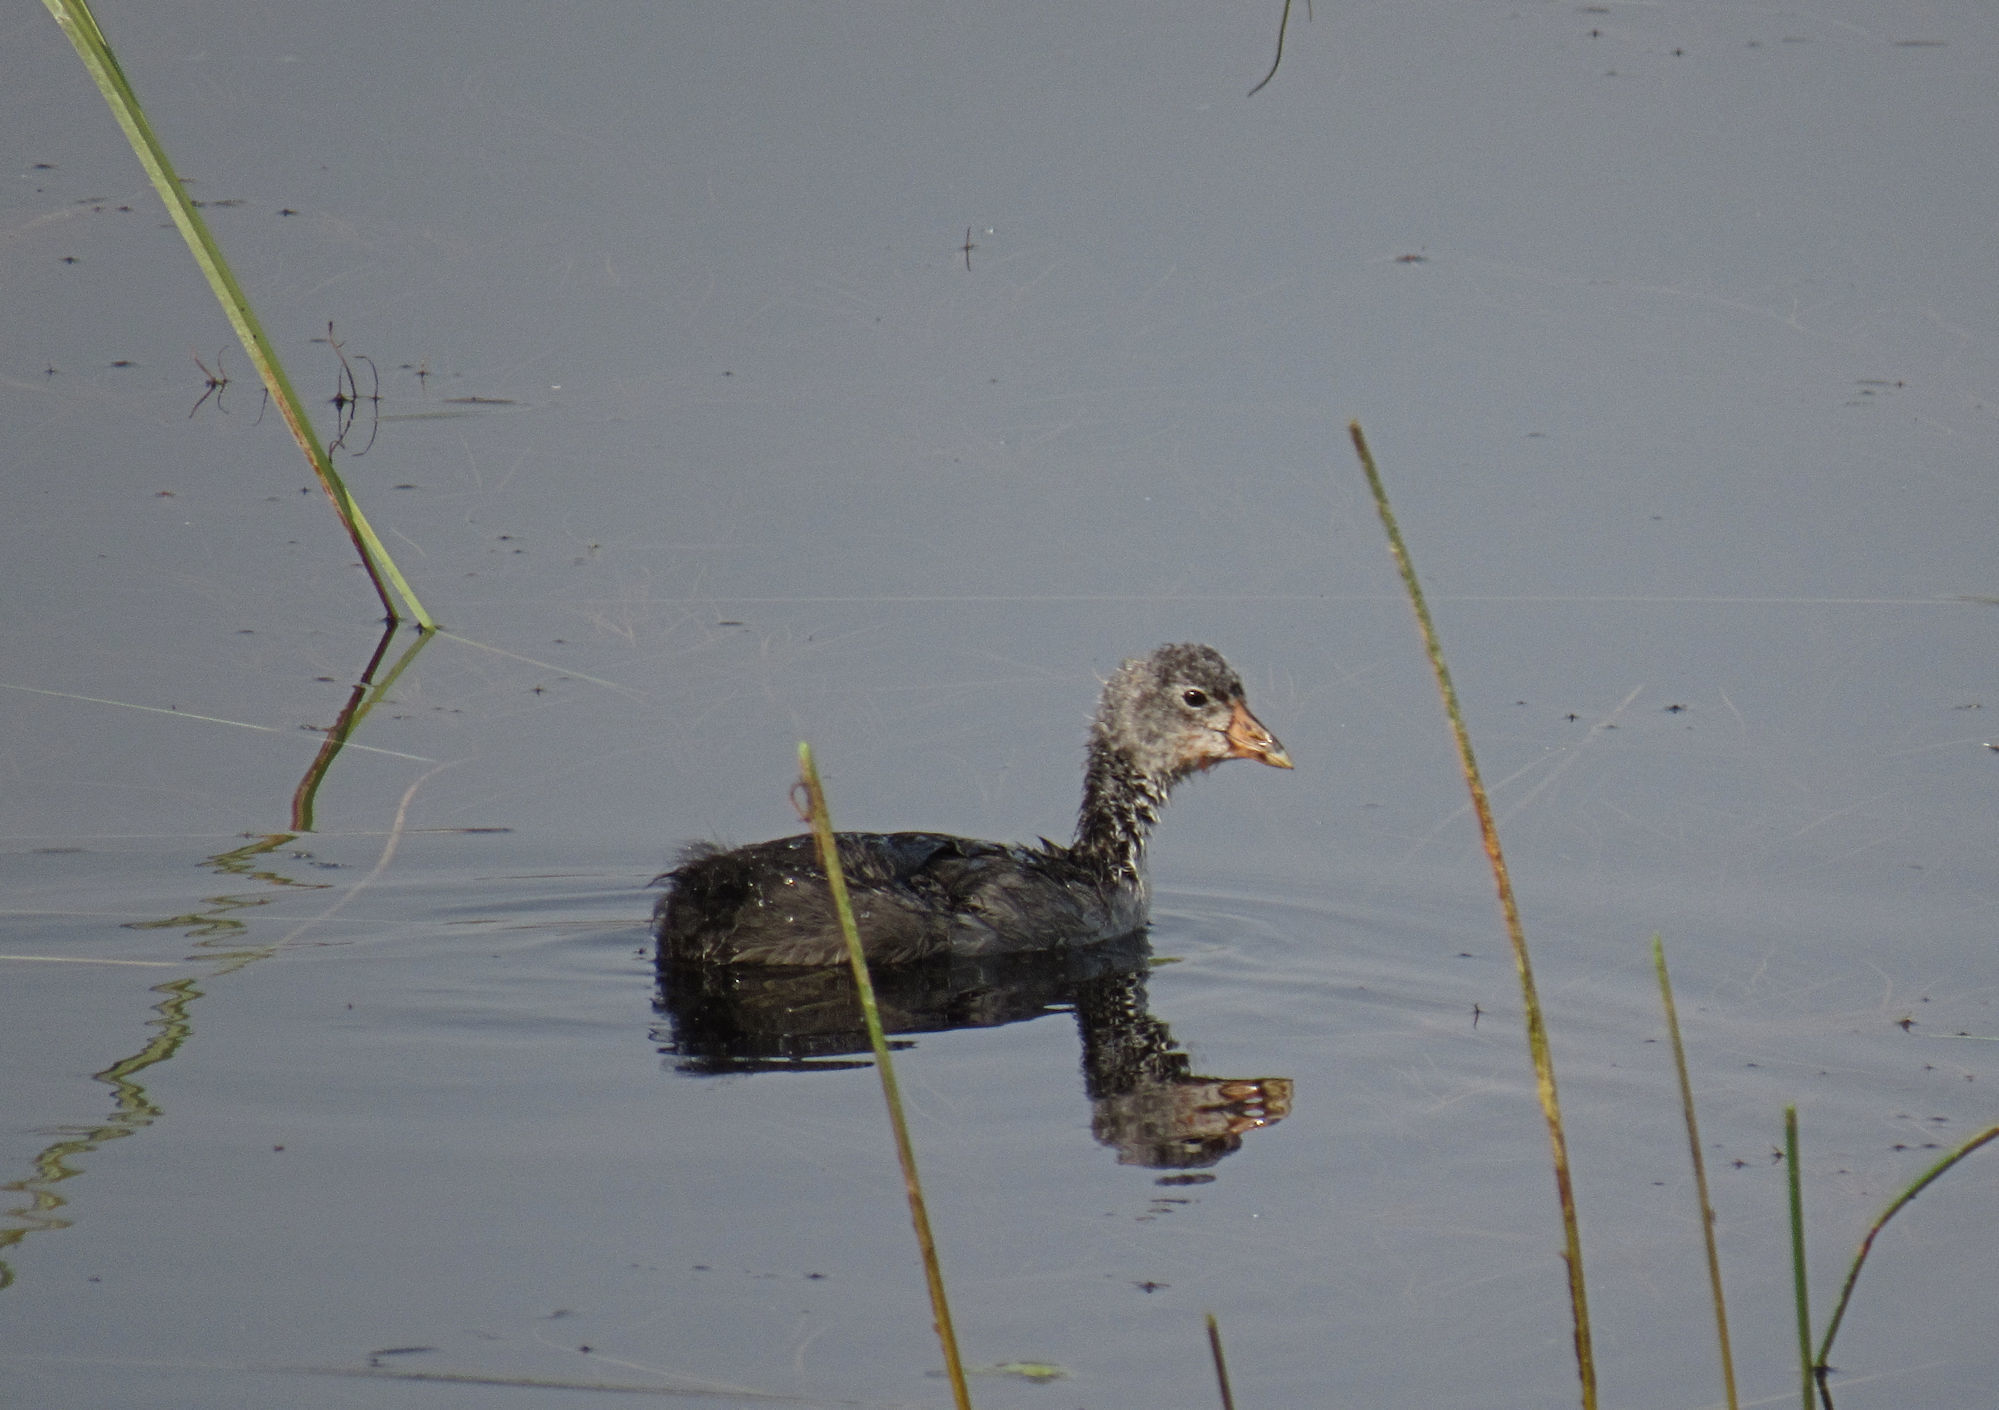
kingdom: Animalia
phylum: Chordata
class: Aves
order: Gruiformes
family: Rallidae
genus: Fulica
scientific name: Fulica americana
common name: American coot
